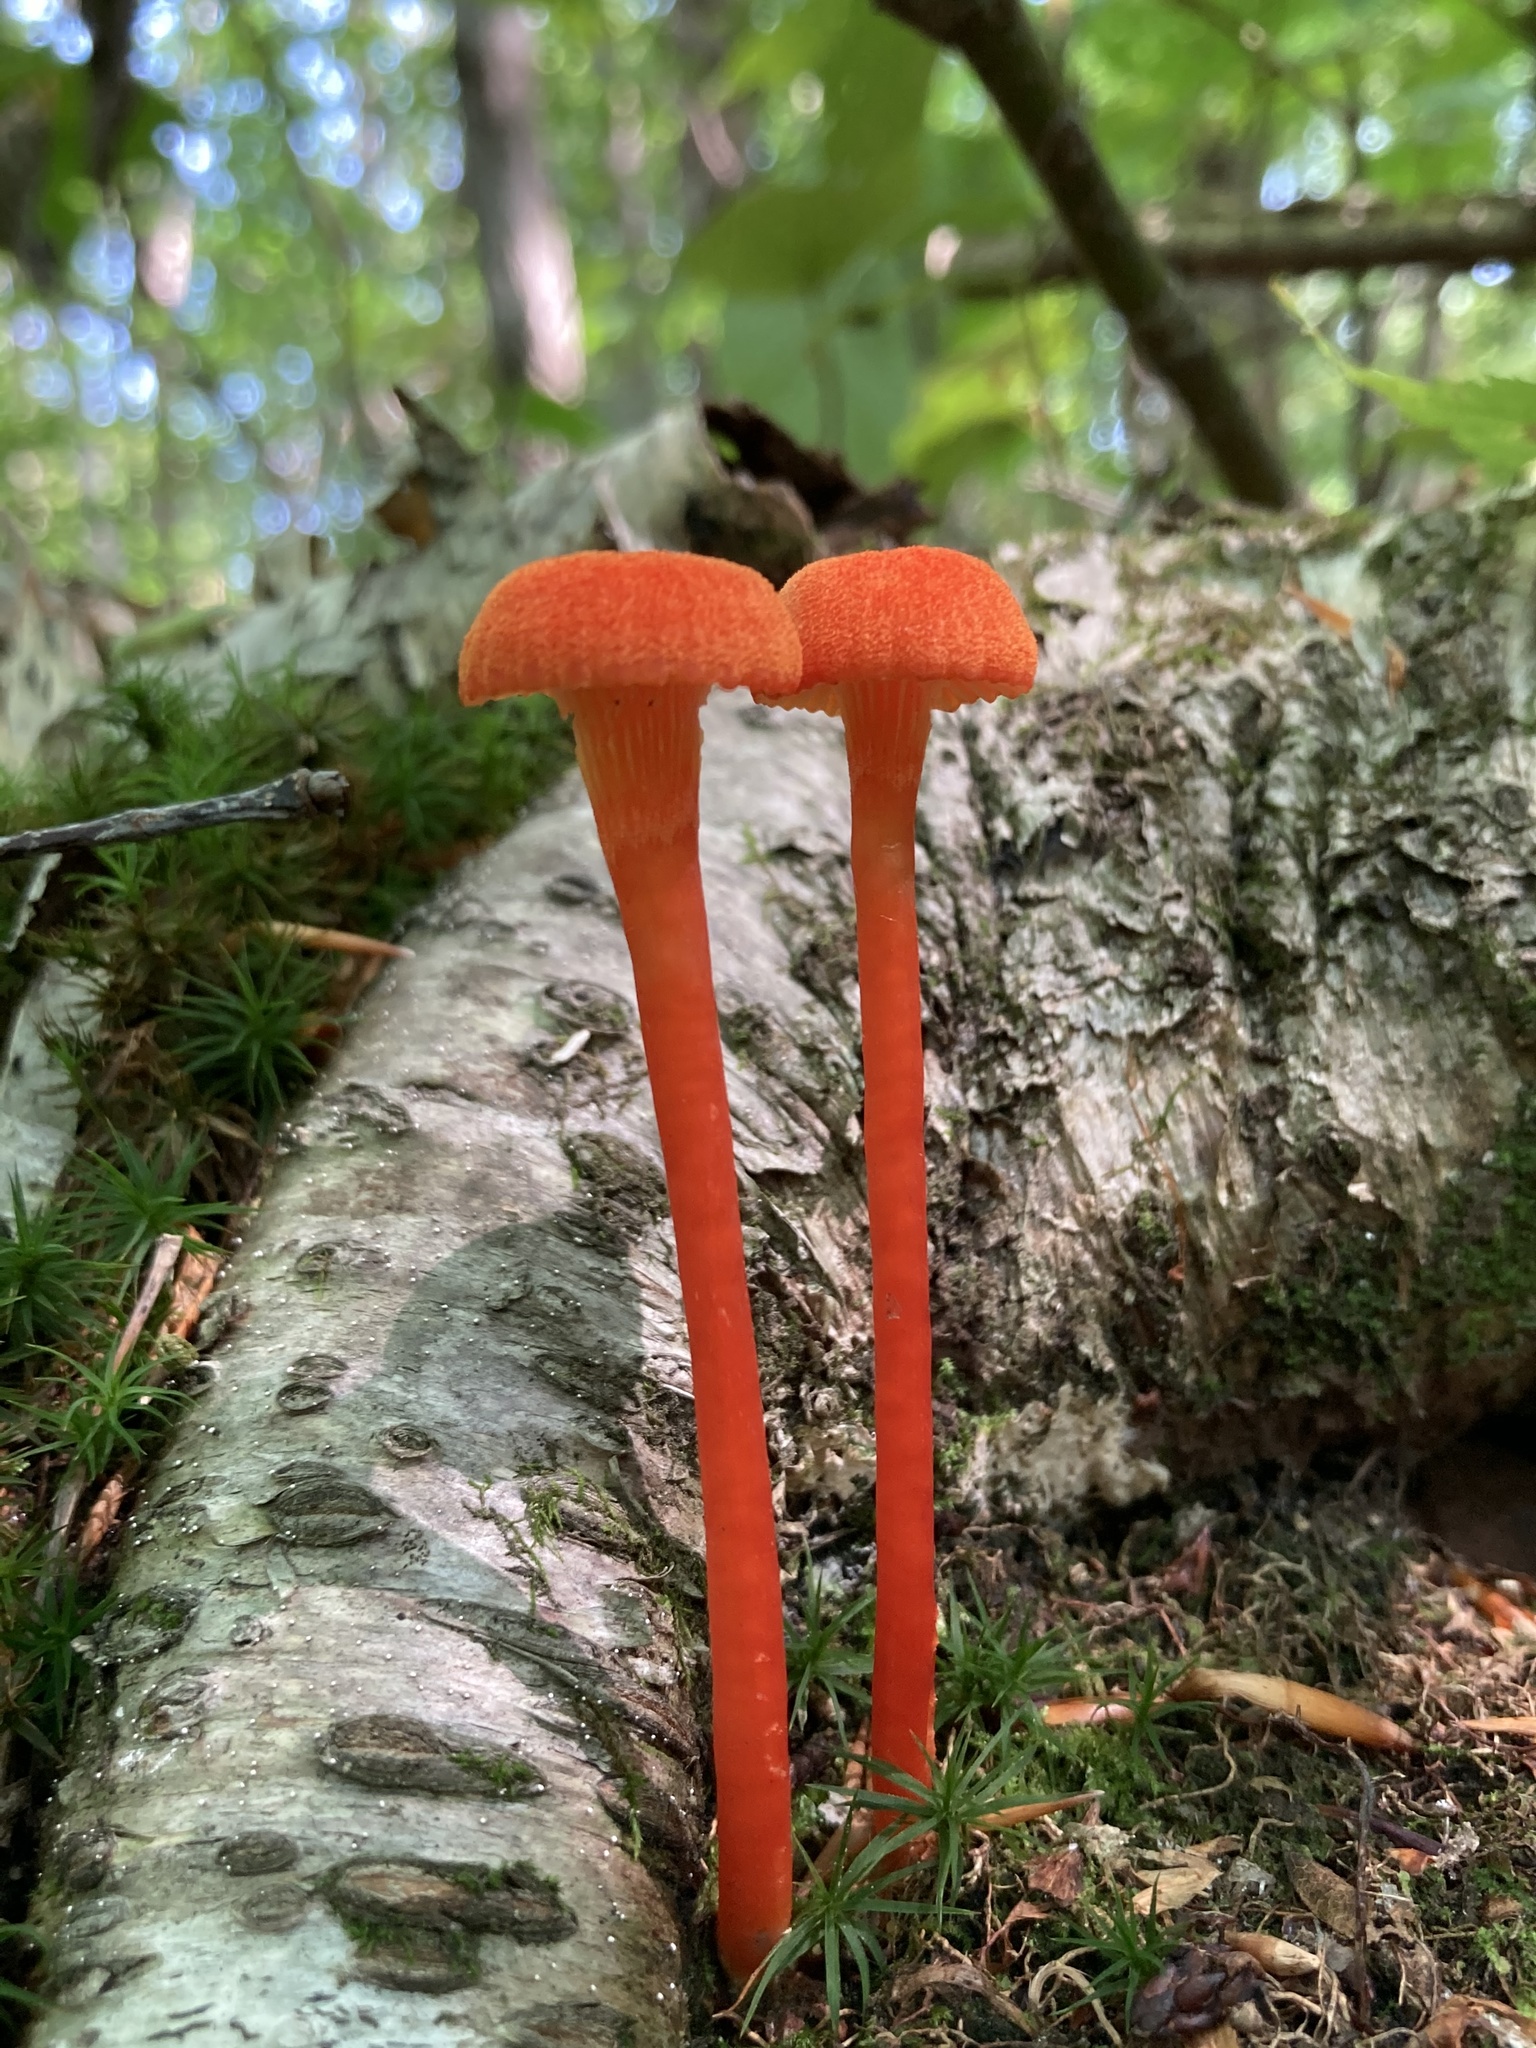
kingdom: Fungi
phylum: Basidiomycota
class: Agaricomycetes
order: Agaricales
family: Hygrophoraceae
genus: Hygrocybe
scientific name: Hygrocybe cantharellus
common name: Goblet waxcap
